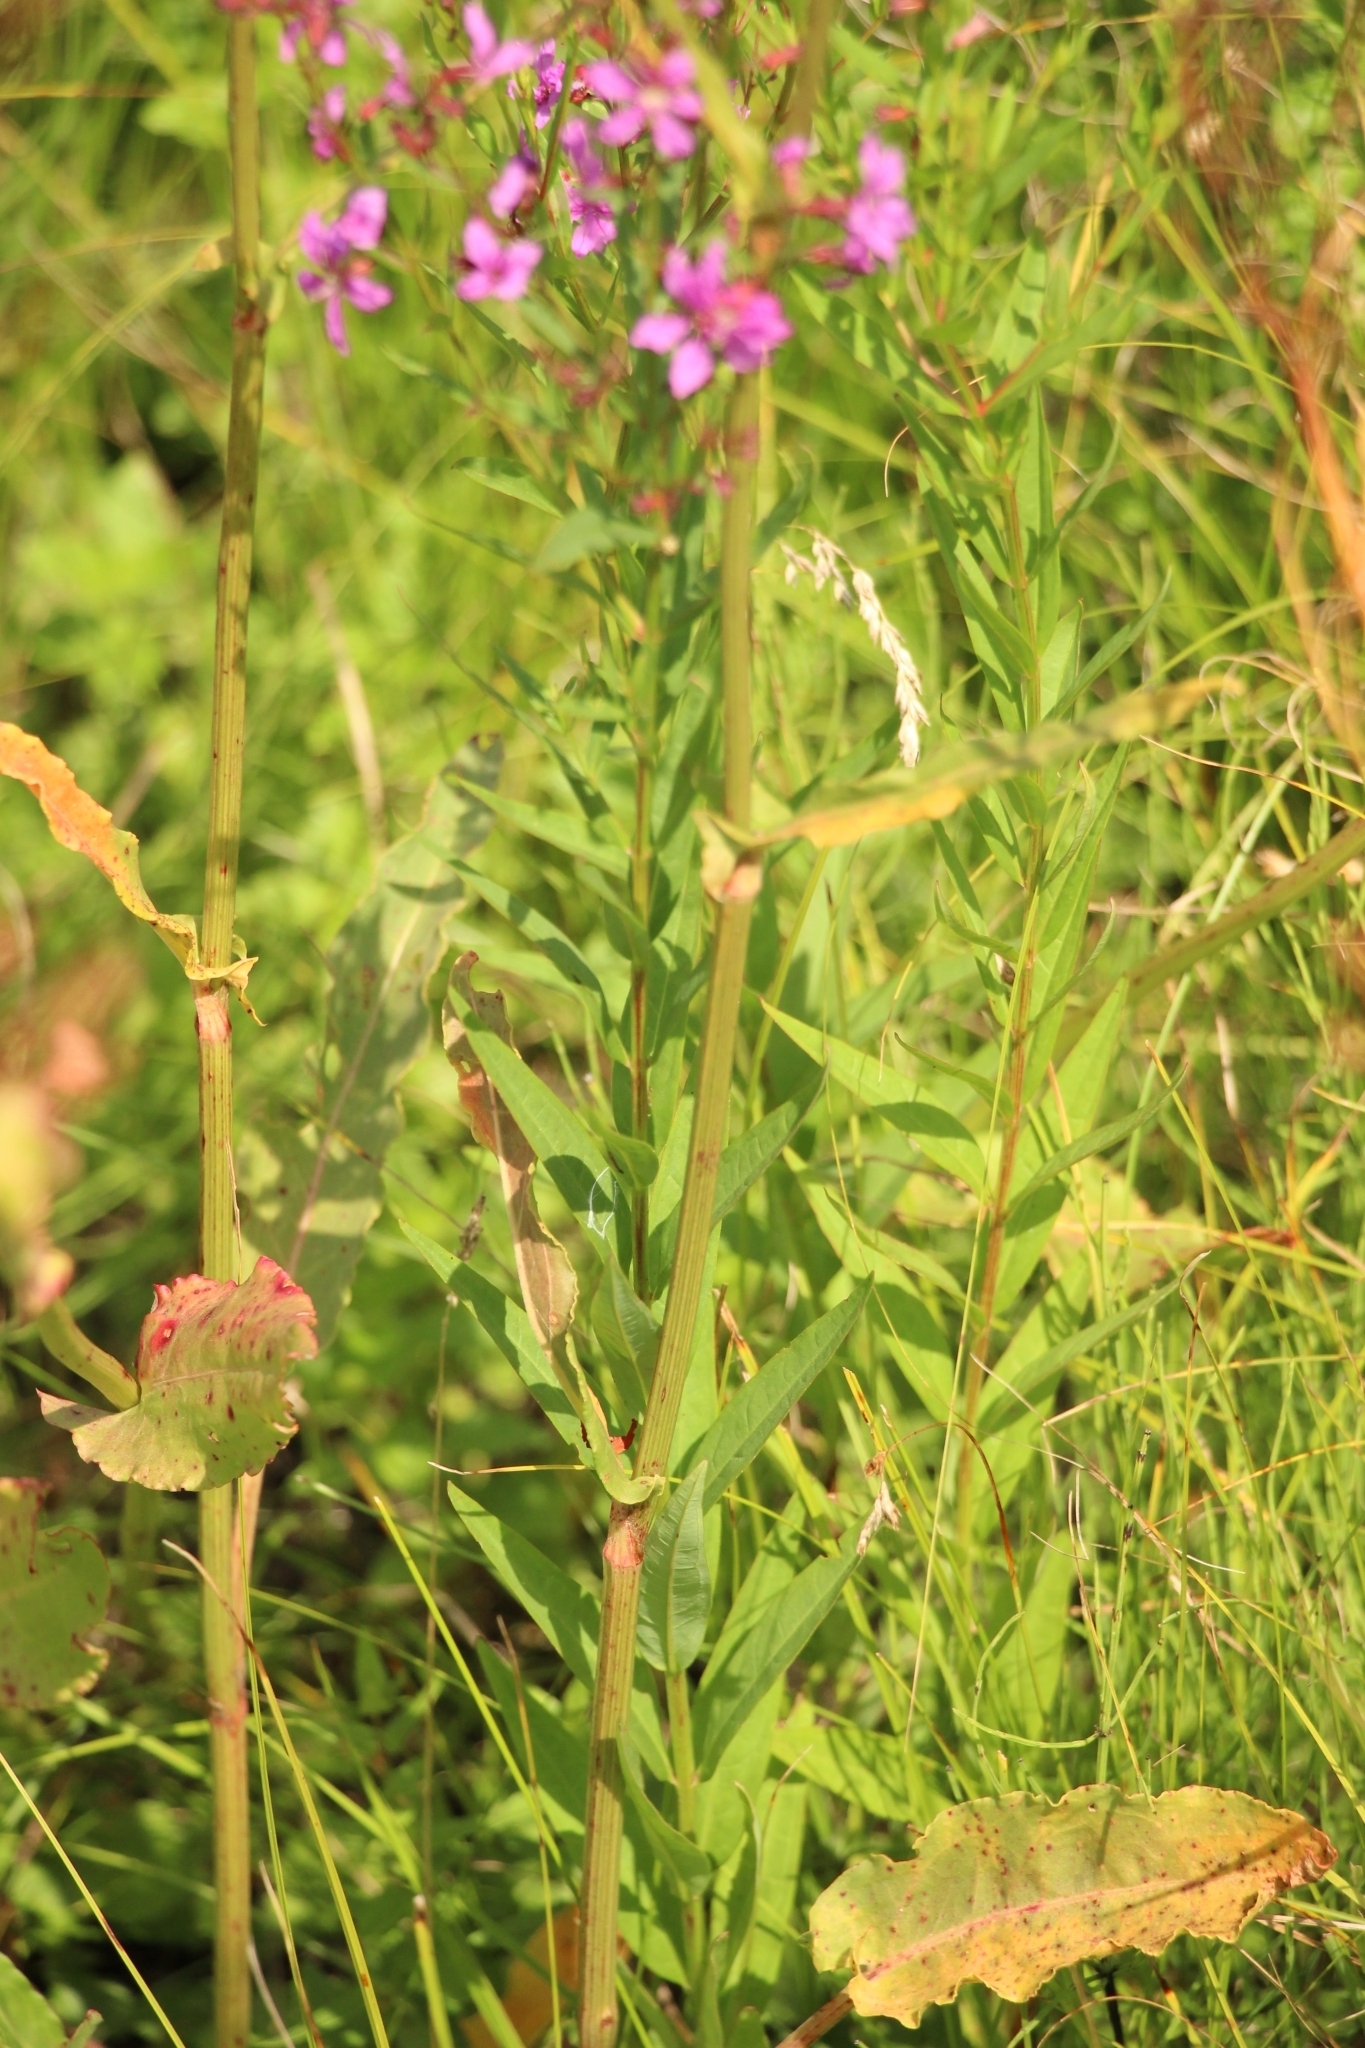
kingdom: Plantae
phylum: Tracheophyta
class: Magnoliopsida
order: Myrtales
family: Lythraceae
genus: Lythrum
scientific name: Lythrum virgatum
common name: European wand loosestrife
